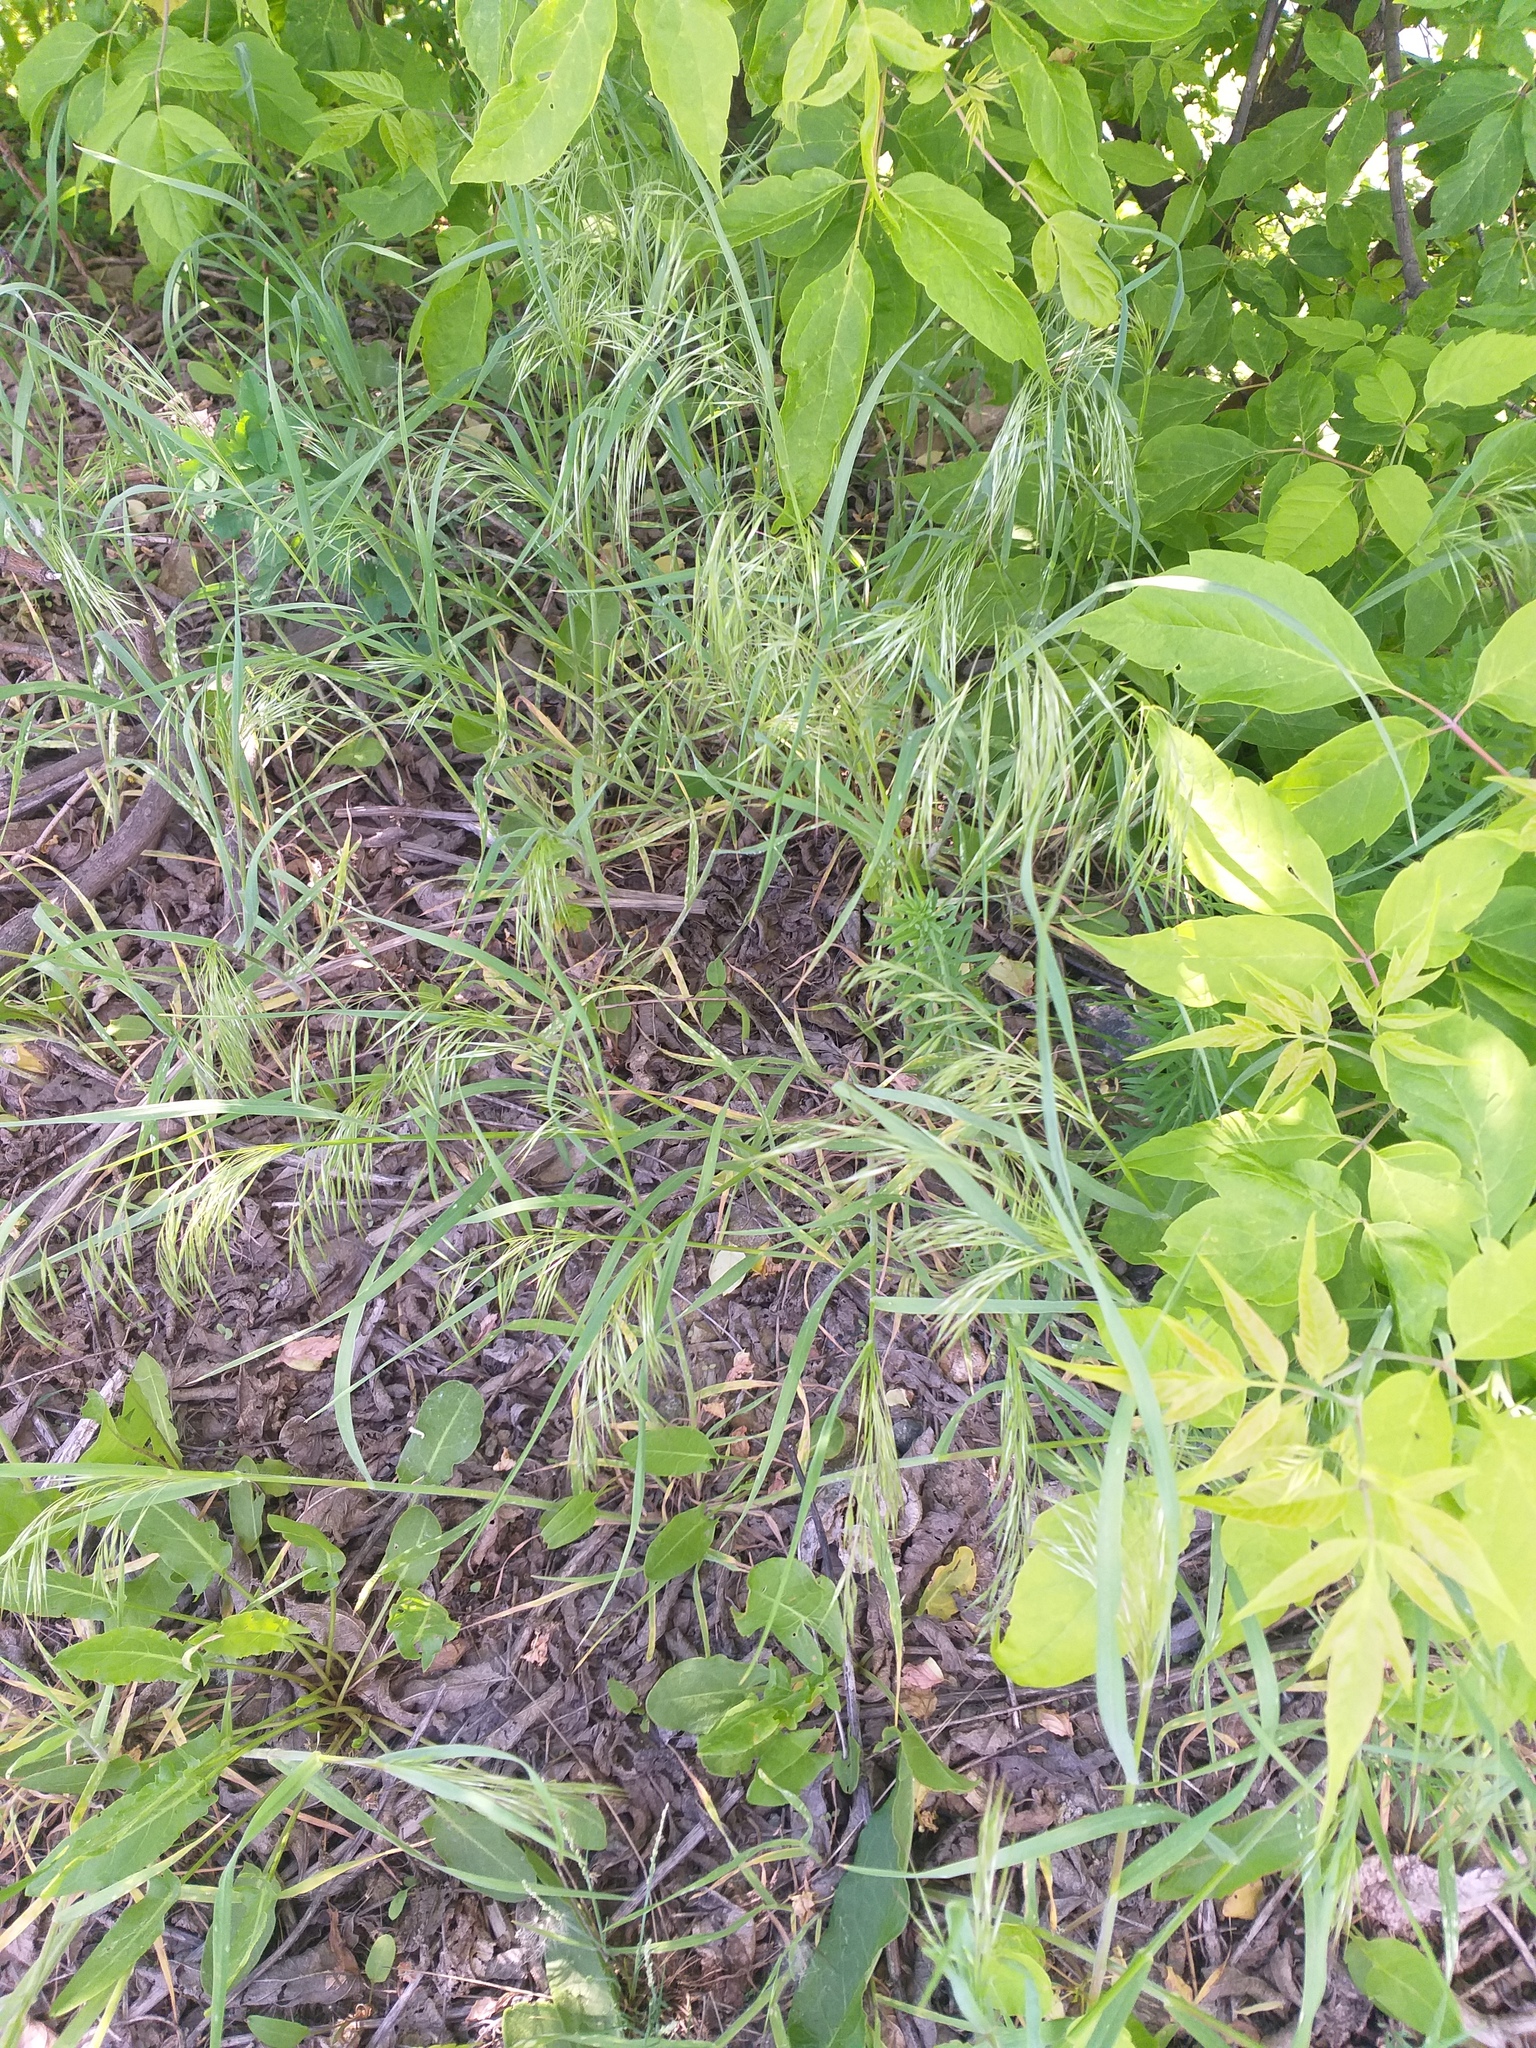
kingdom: Plantae
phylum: Tracheophyta
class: Liliopsida
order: Poales
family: Poaceae
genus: Bromus
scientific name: Bromus tectorum
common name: Cheatgrass
